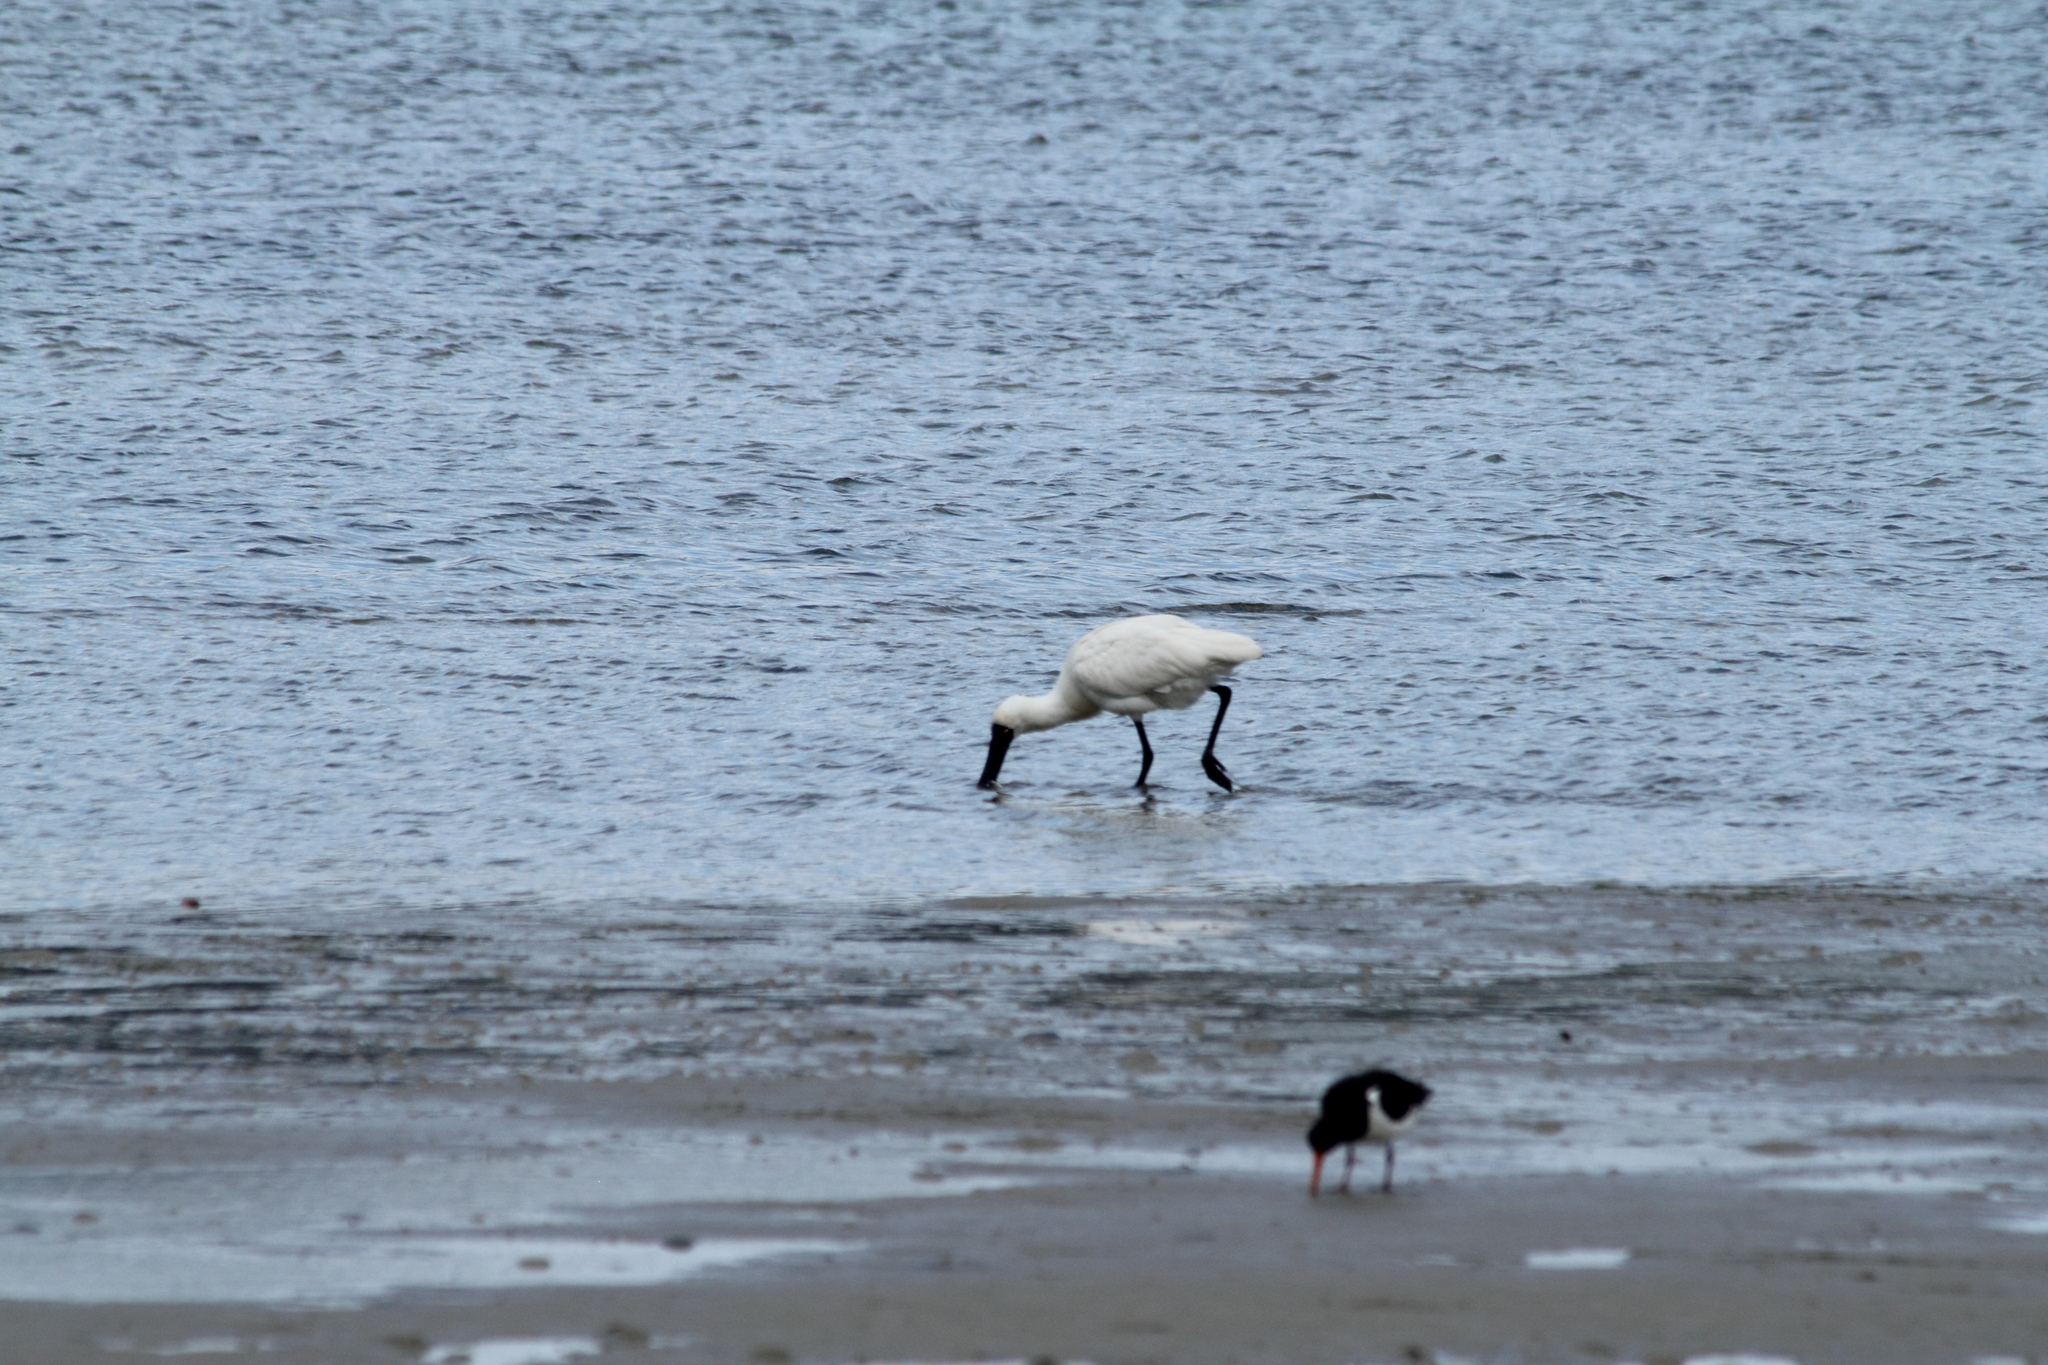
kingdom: Animalia
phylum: Chordata
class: Aves
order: Pelecaniformes
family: Threskiornithidae
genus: Platalea
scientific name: Platalea regia
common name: Royal spoonbill
